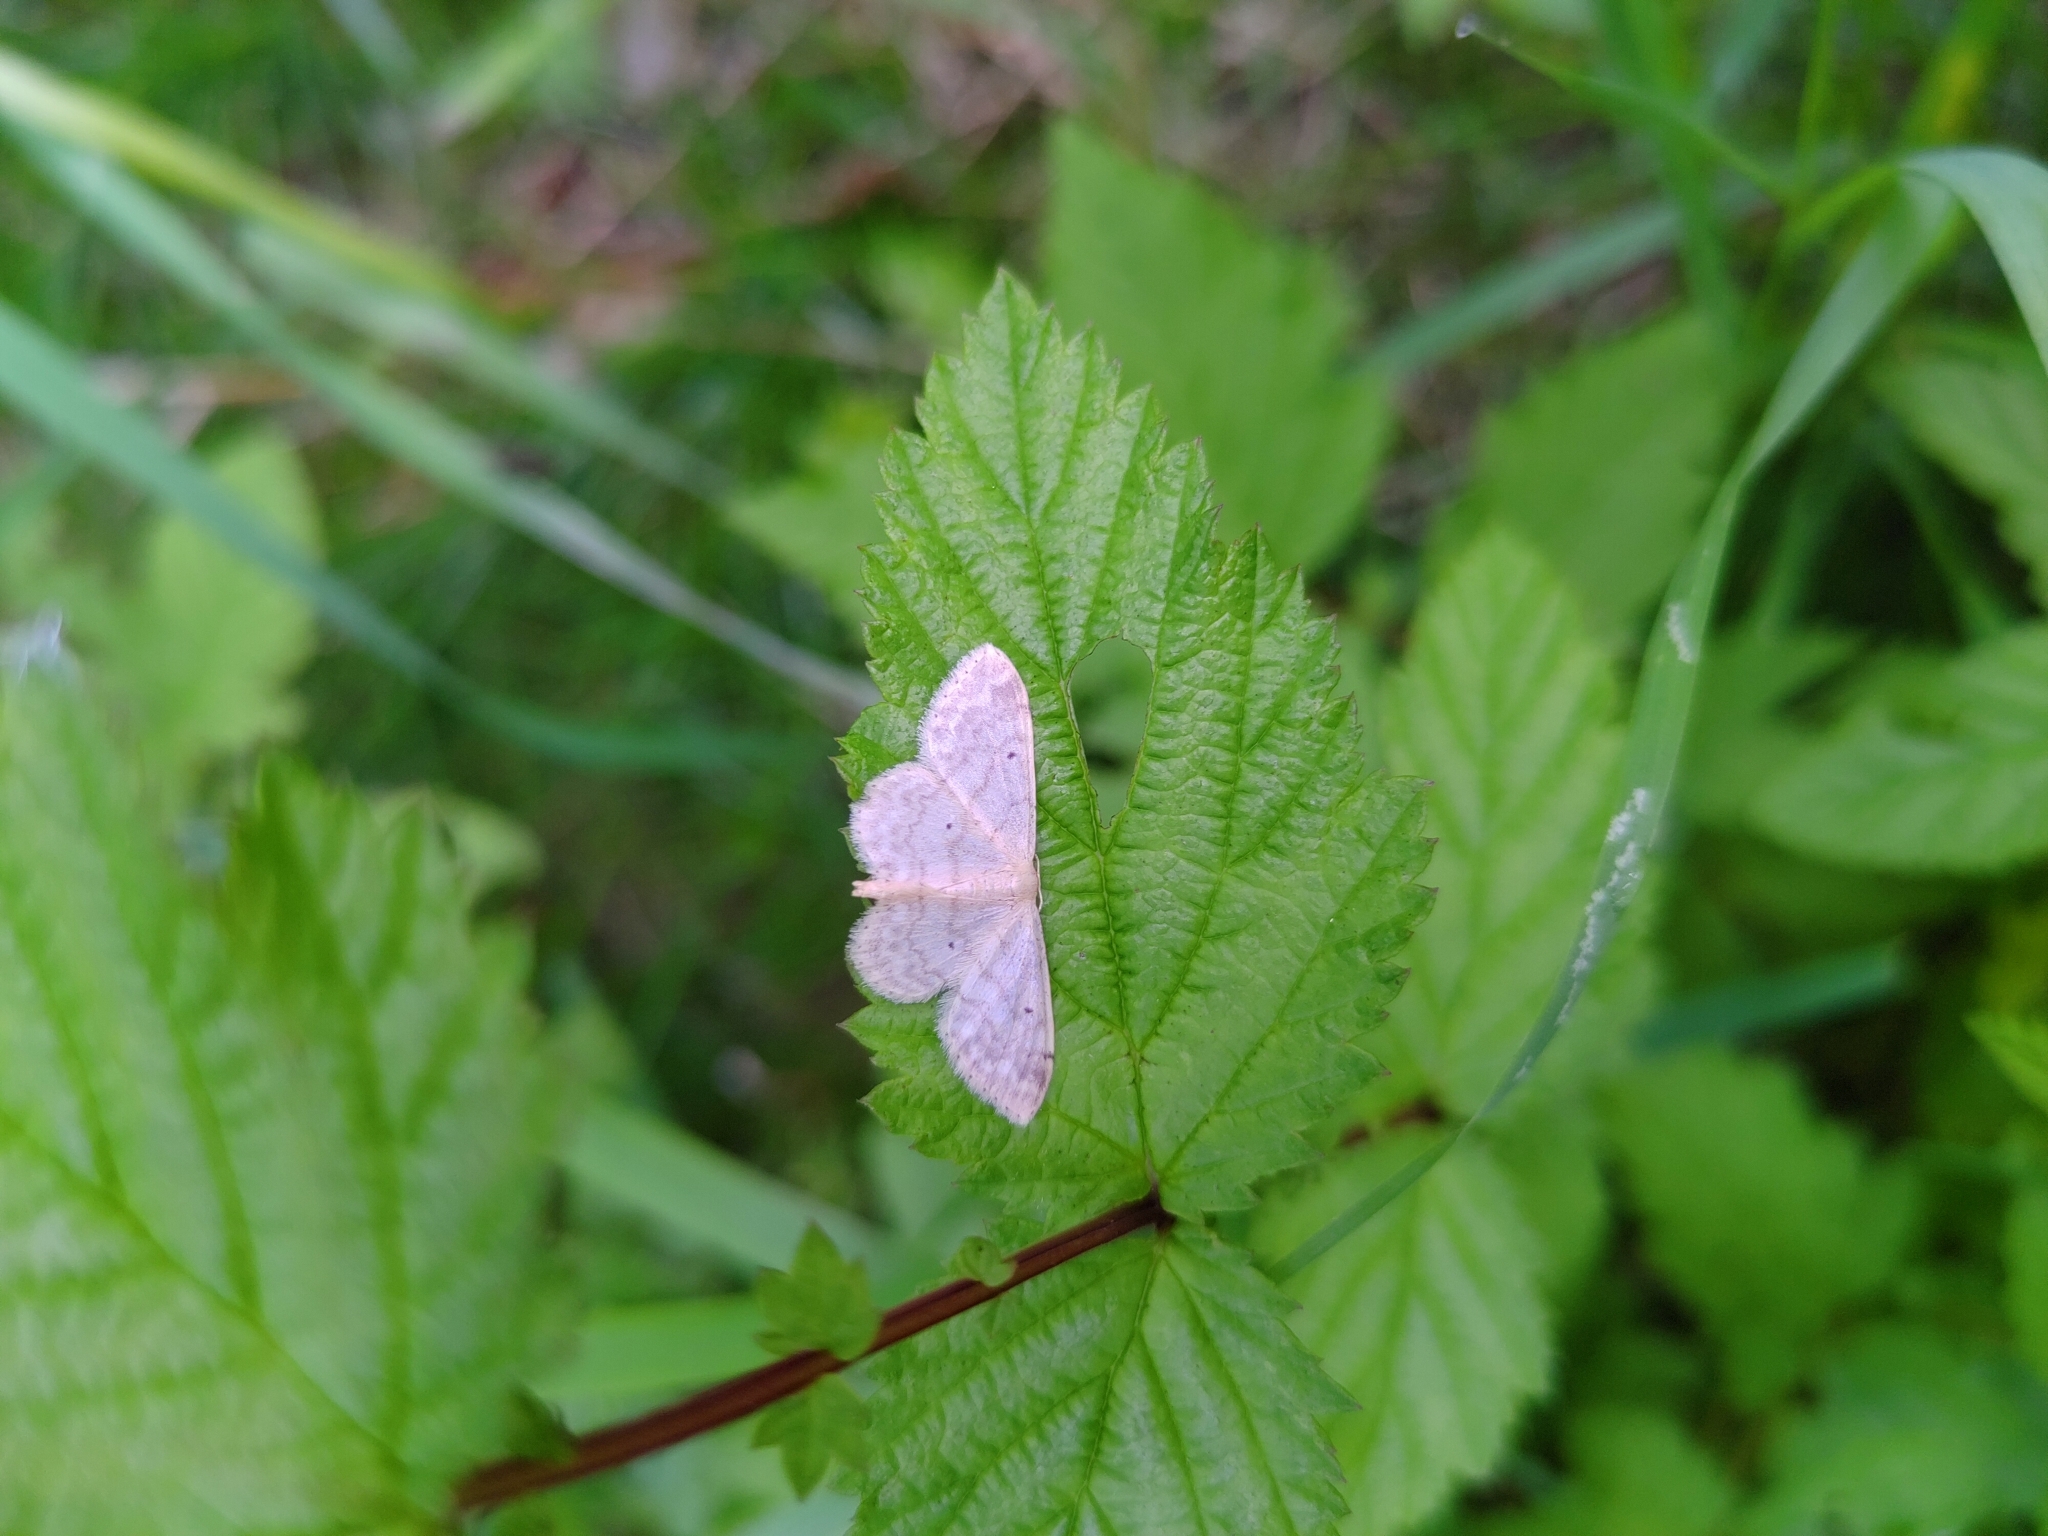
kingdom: Animalia
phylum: Arthropoda
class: Insecta
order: Lepidoptera
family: Geometridae
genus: Idaea
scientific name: Idaea biselata
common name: Small fan-footed wave
